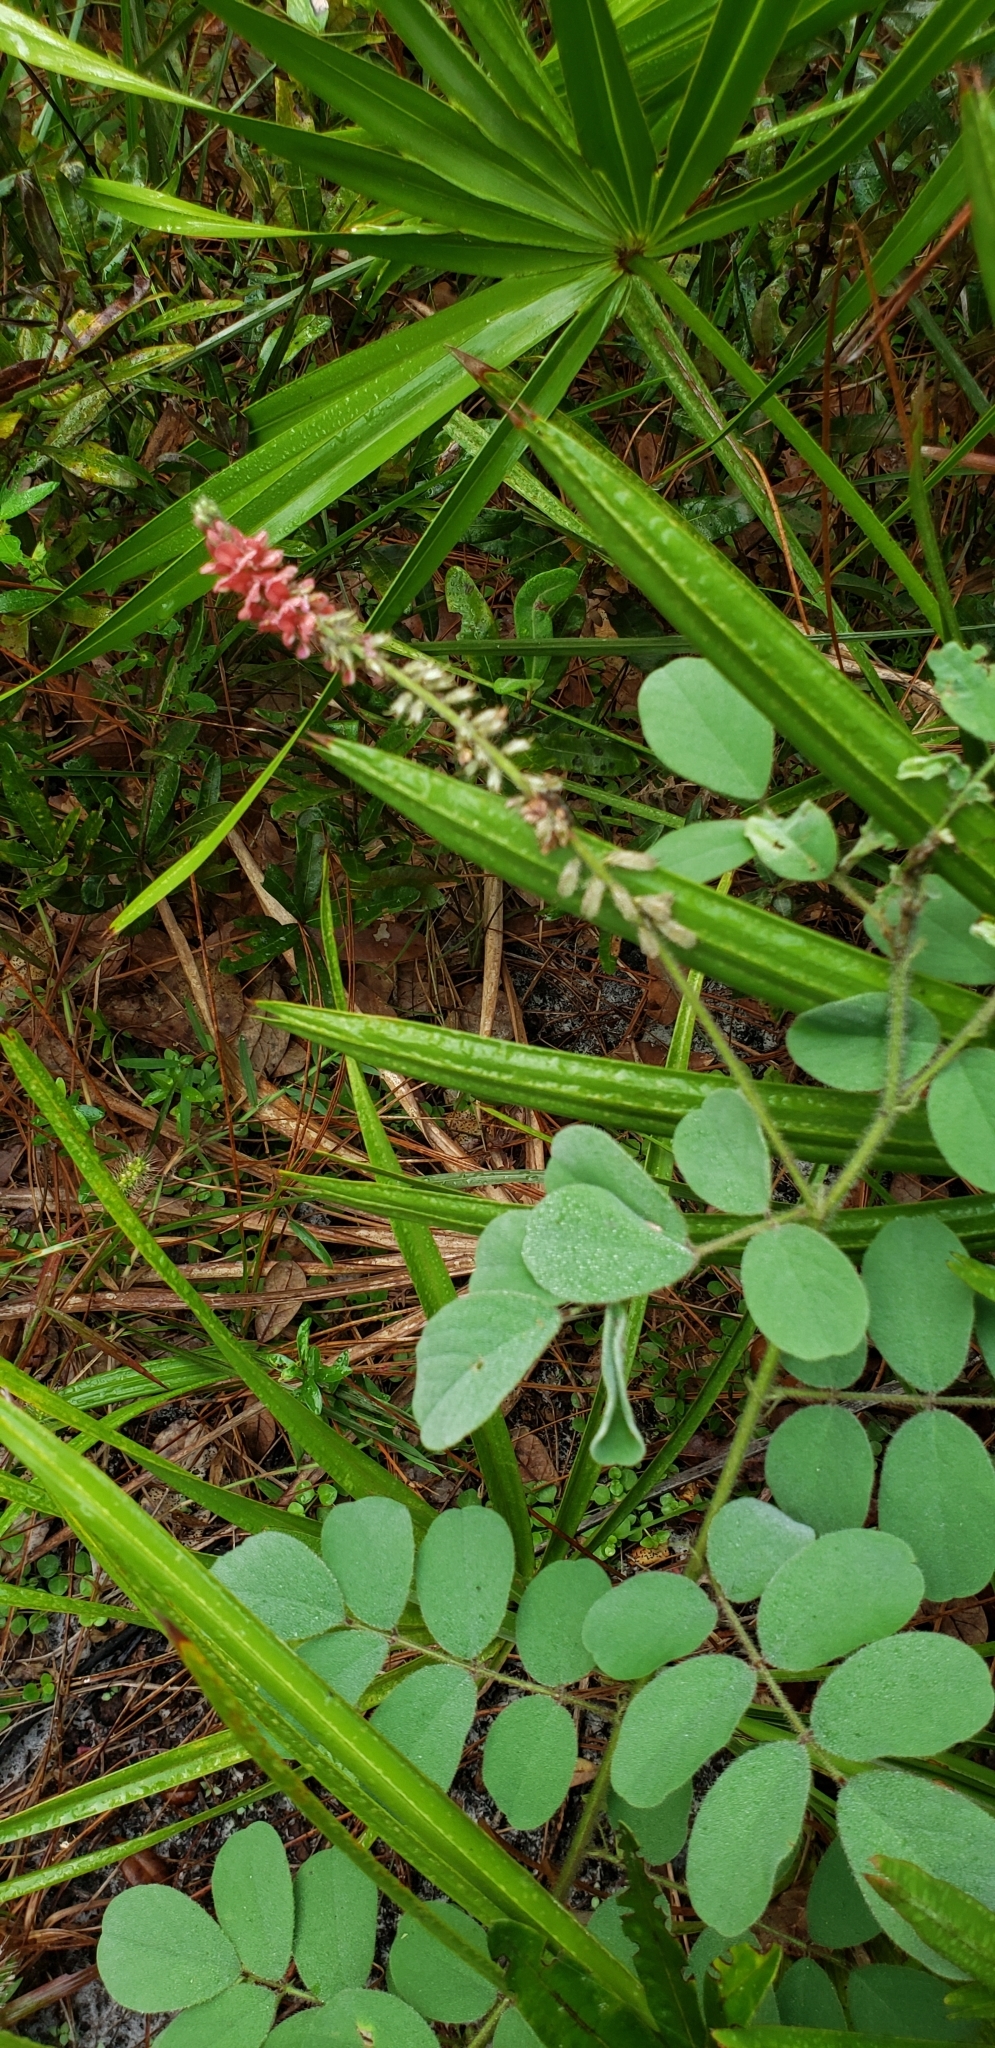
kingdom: Plantae
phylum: Tracheophyta
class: Magnoliopsida
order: Fabales
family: Fabaceae
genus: Indigofera
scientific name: Indigofera hirsuta
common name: Hairy indigo
